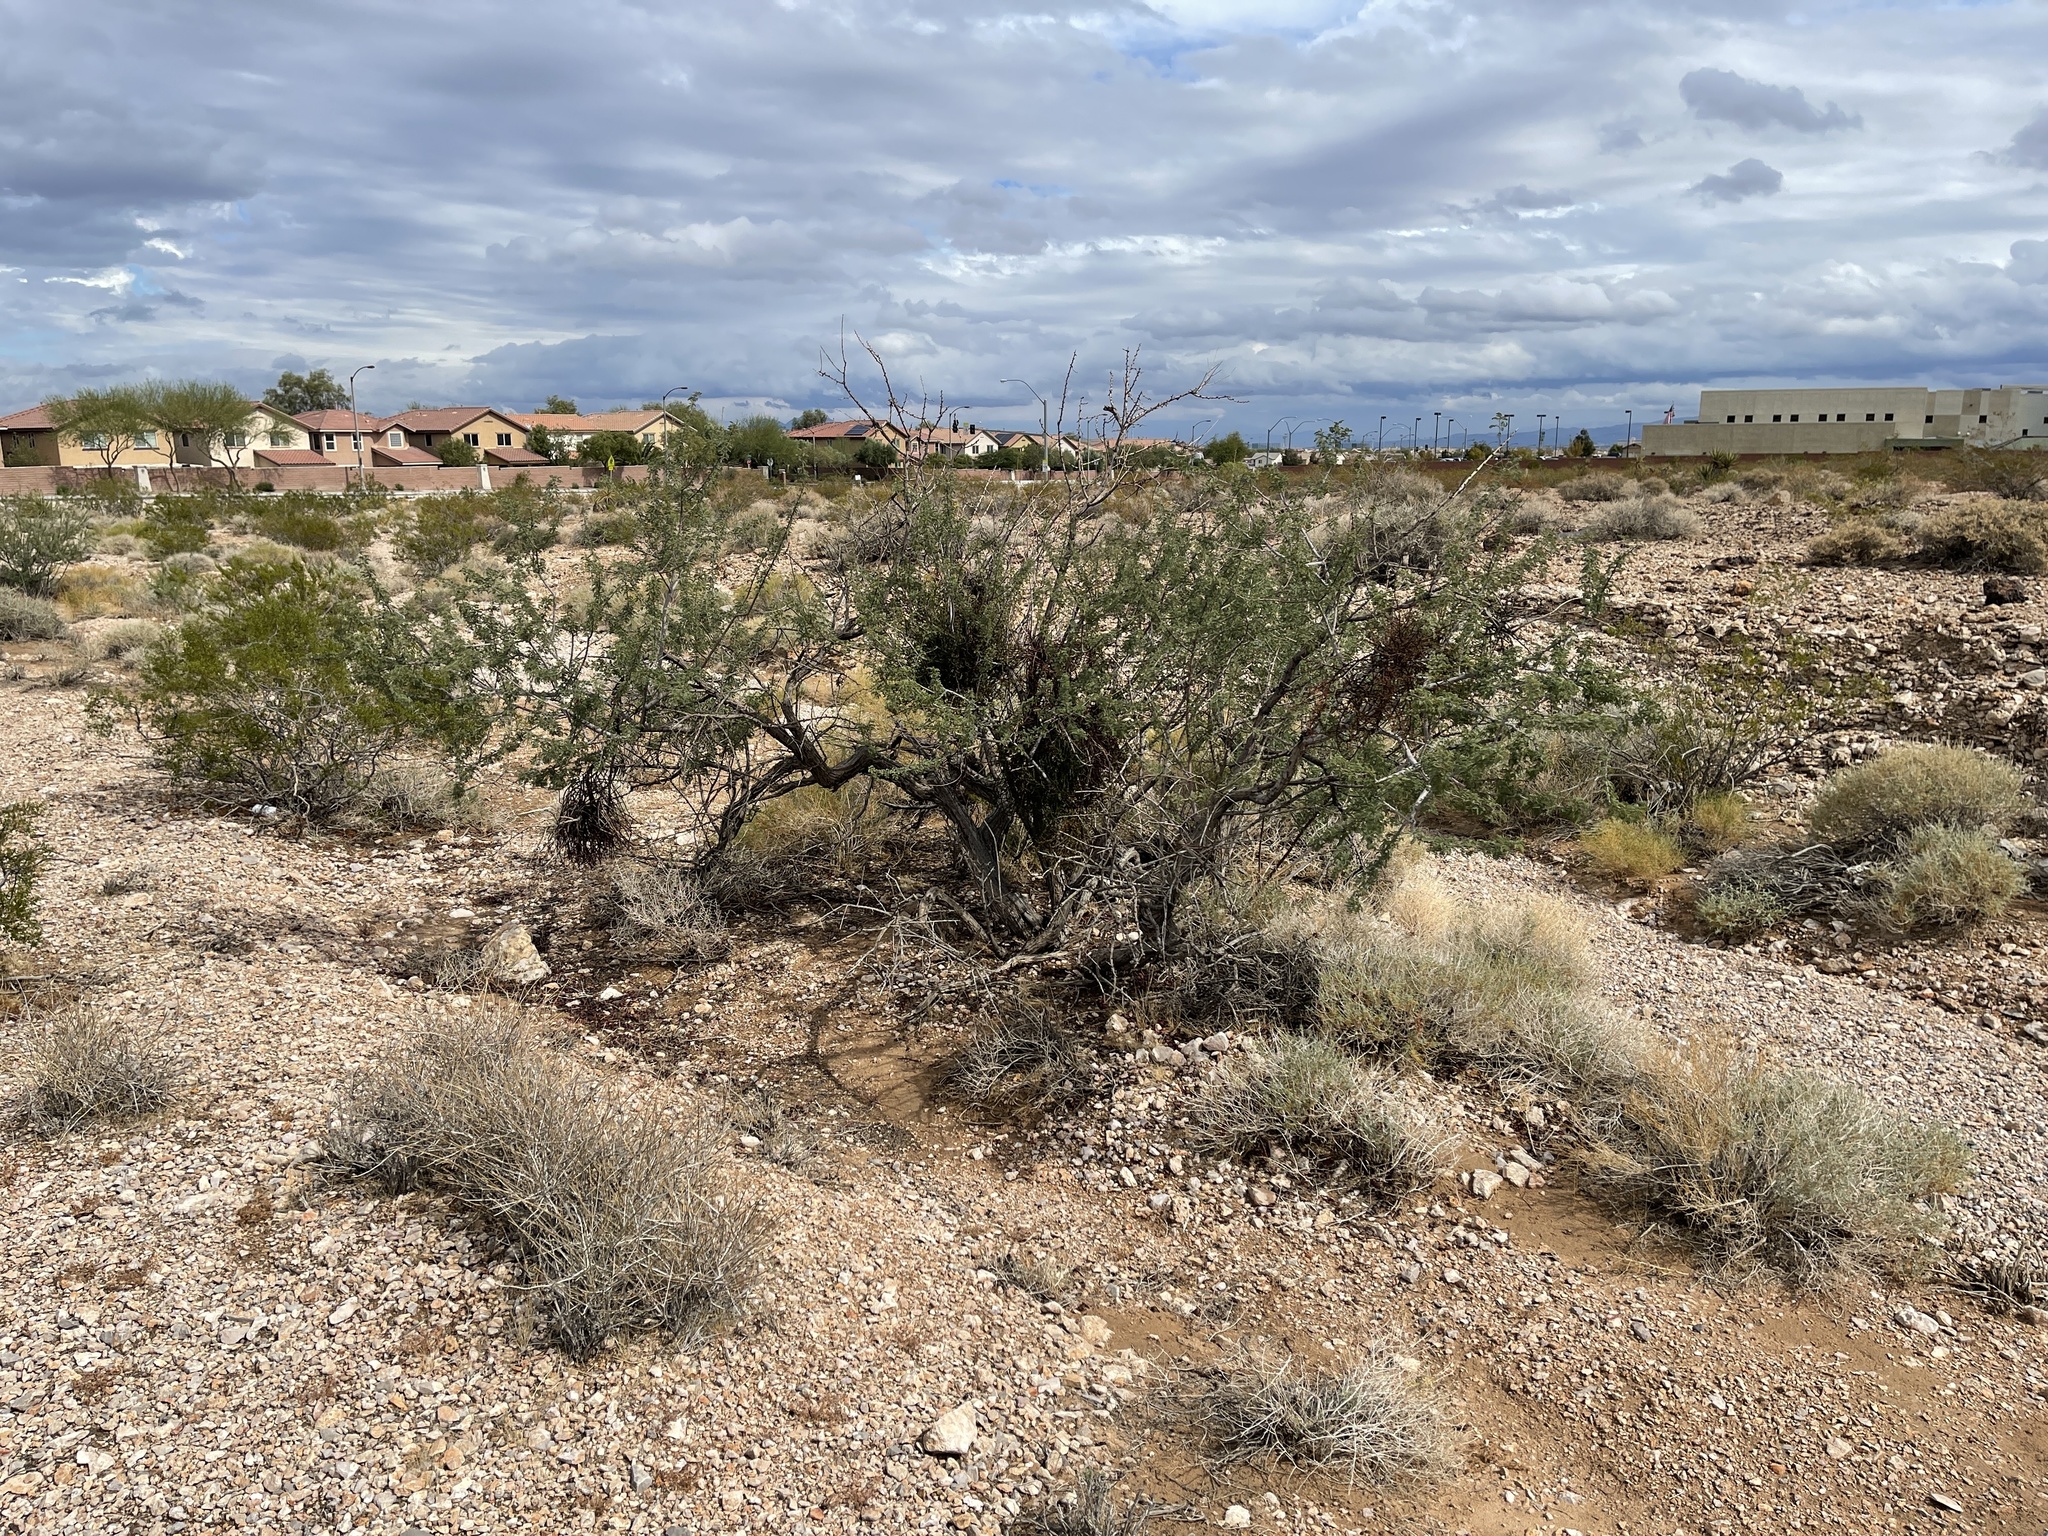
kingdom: Plantae
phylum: Tracheophyta
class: Magnoliopsida
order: Fabales
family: Fabaceae
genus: Senegalia
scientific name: Senegalia greggii
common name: Texas-mimosa
